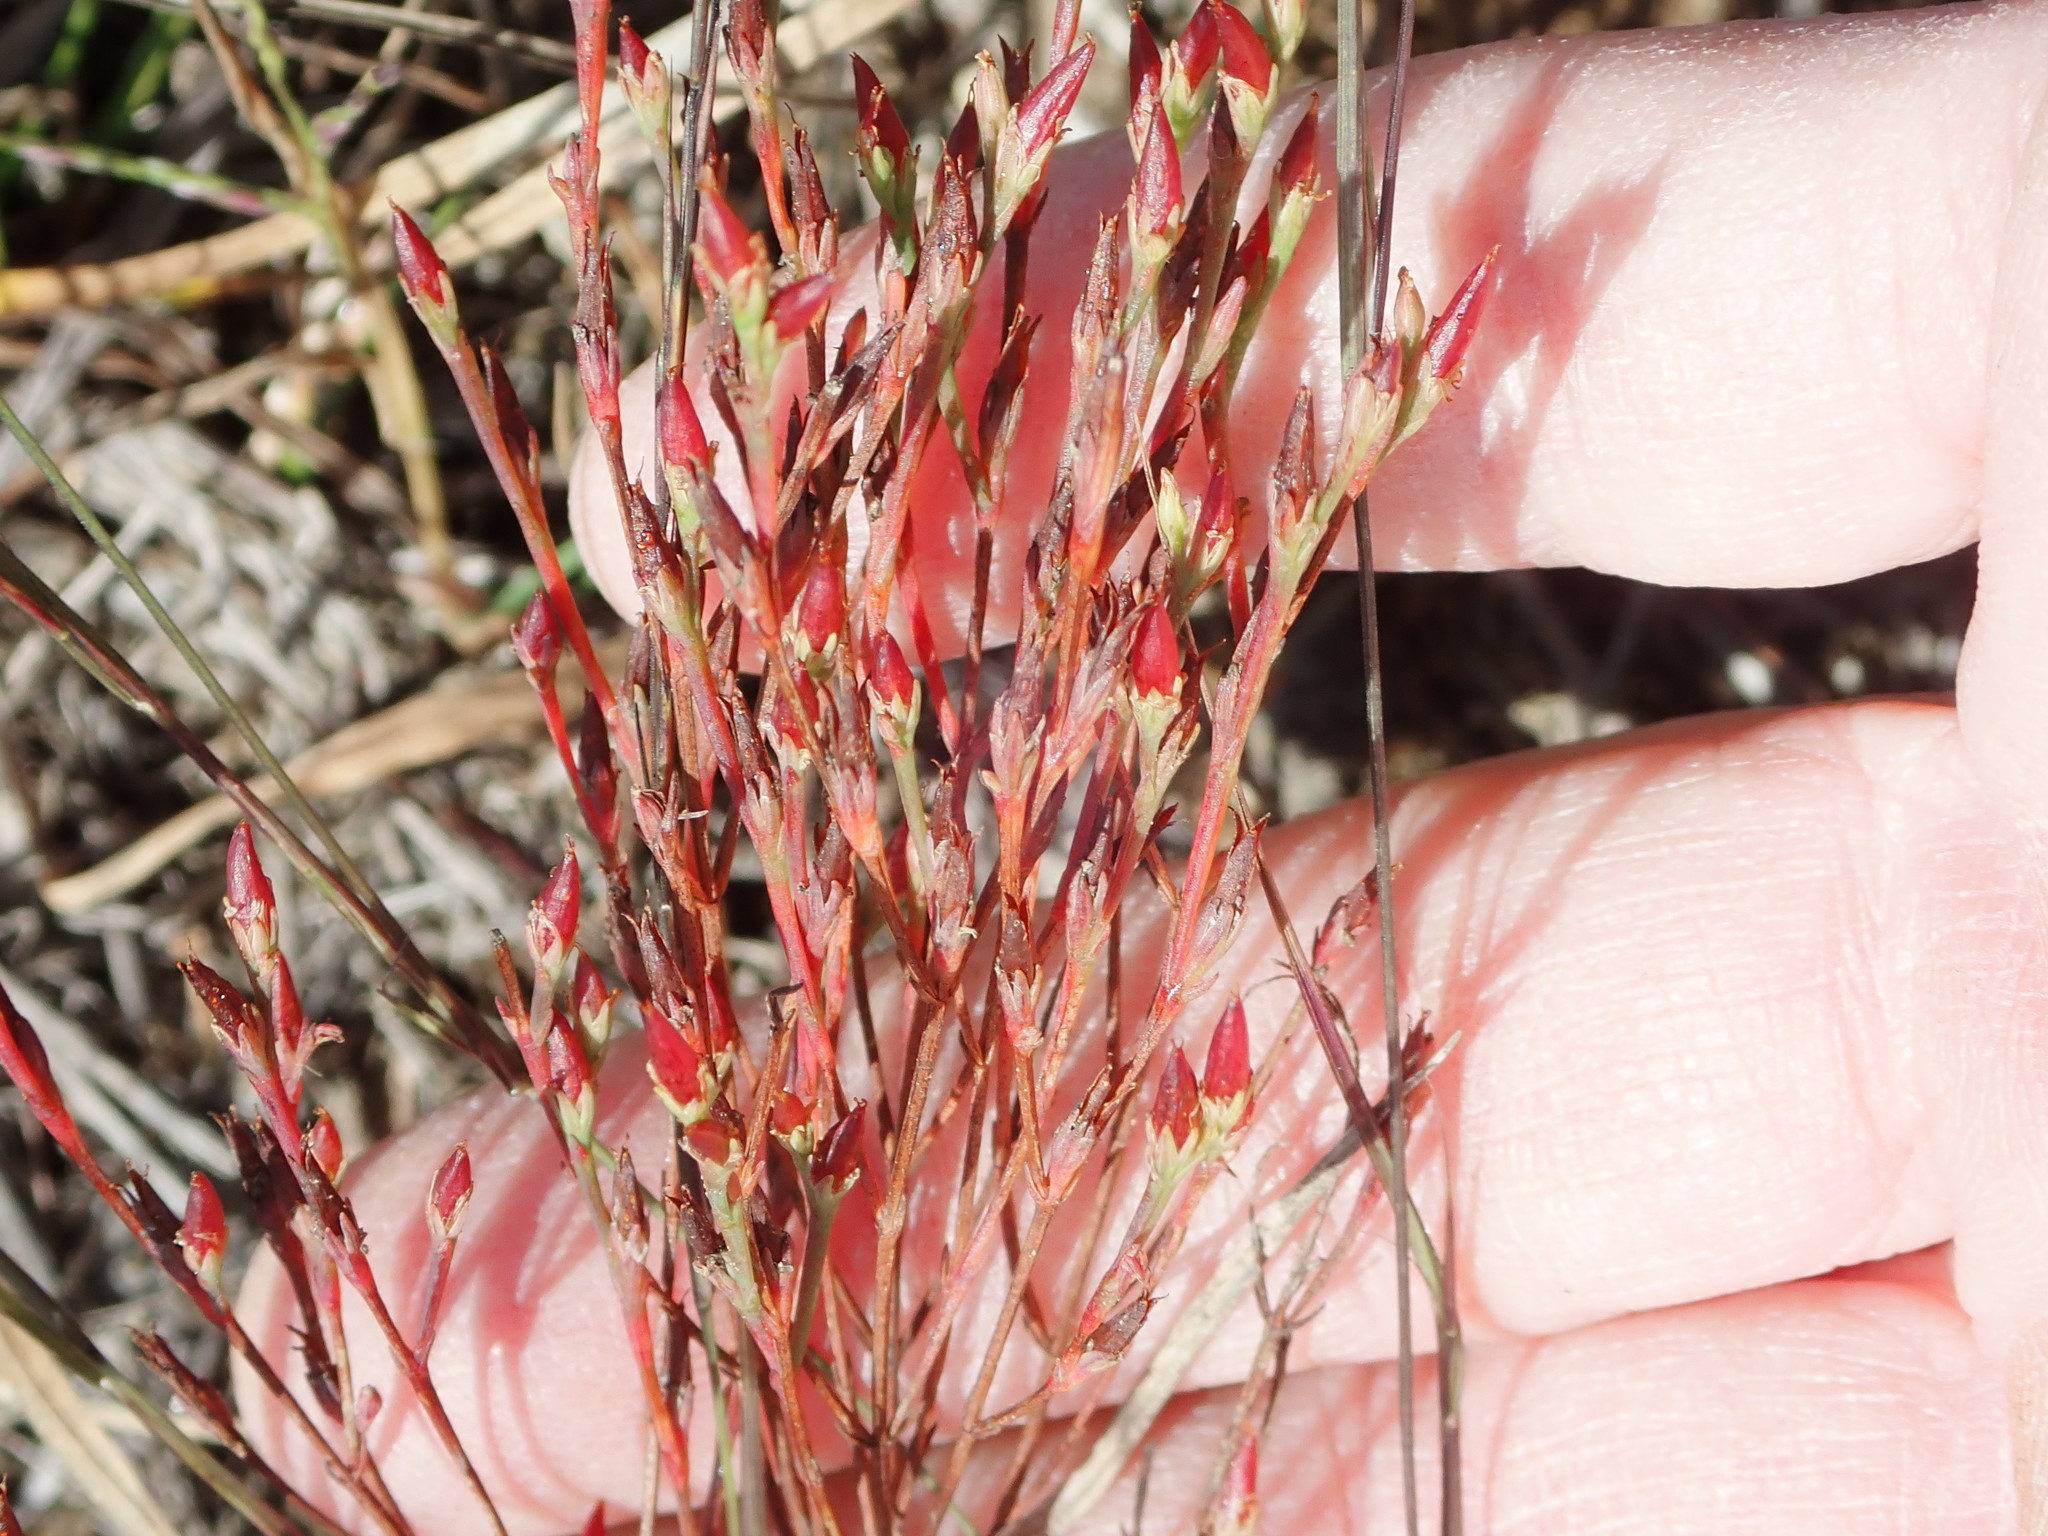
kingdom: Plantae
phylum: Tracheophyta
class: Magnoliopsida
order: Malpighiales
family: Hypericaceae
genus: Hypericum
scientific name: Hypericum gentianoides
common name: Gentian-leaved st. john's-wort
